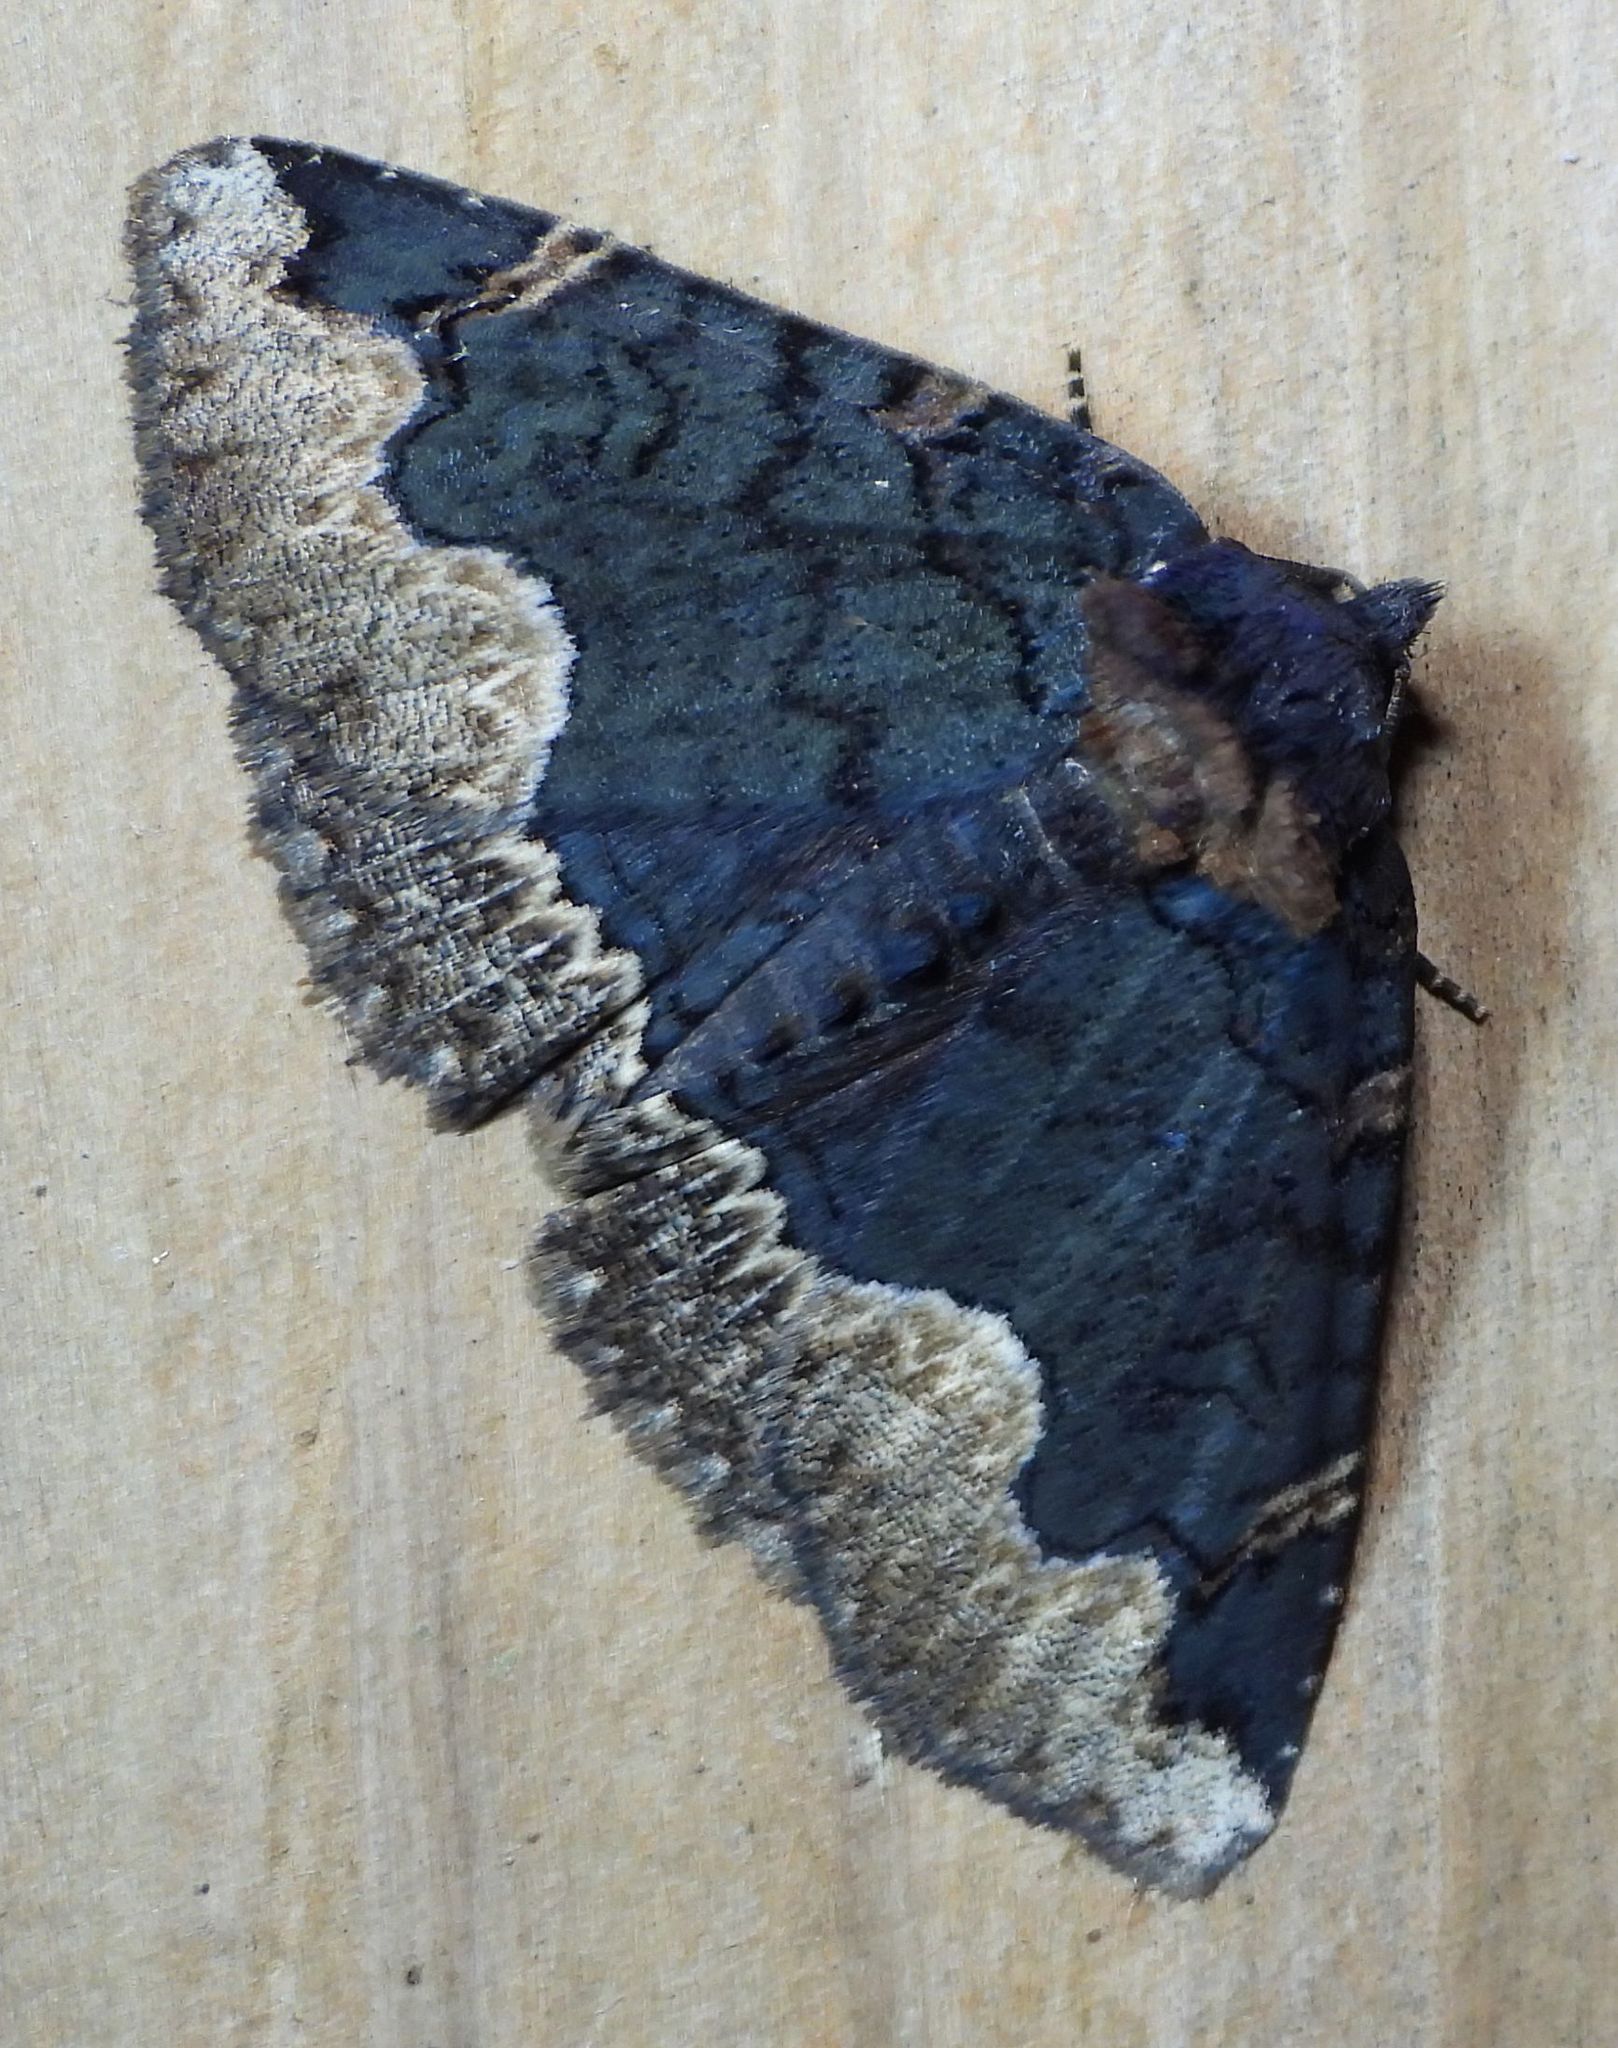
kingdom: Animalia
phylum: Arthropoda
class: Insecta
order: Lepidoptera
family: Erebidae
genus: Zale
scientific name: Zale horrida
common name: Horrid zale moth
